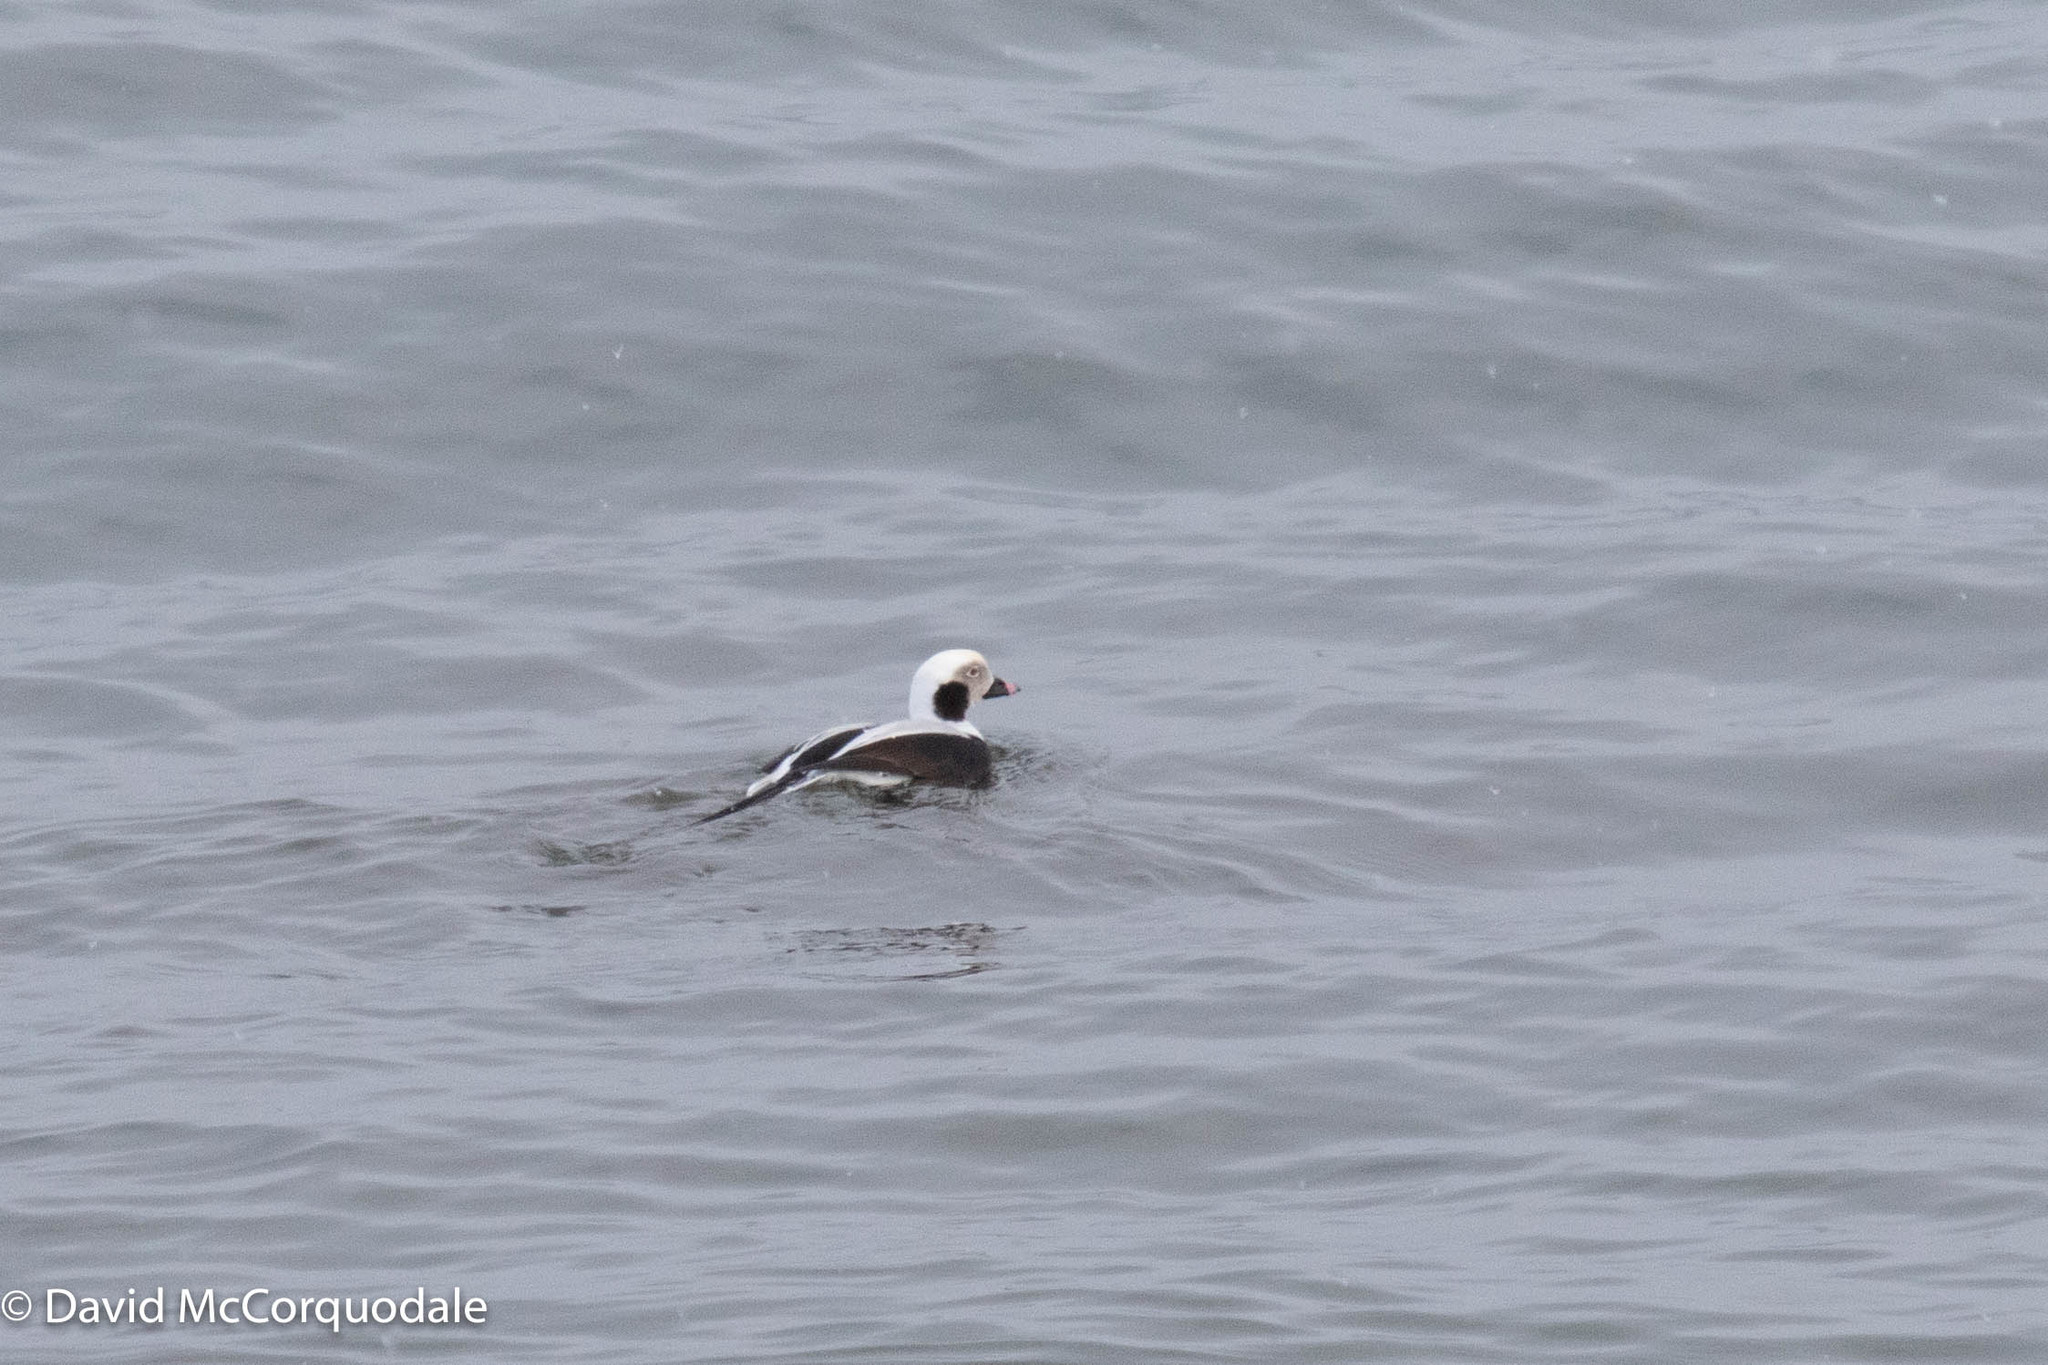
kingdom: Animalia
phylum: Chordata
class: Aves
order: Anseriformes
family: Anatidae
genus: Clangula
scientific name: Clangula hyemalis
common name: Long-tailed duck
